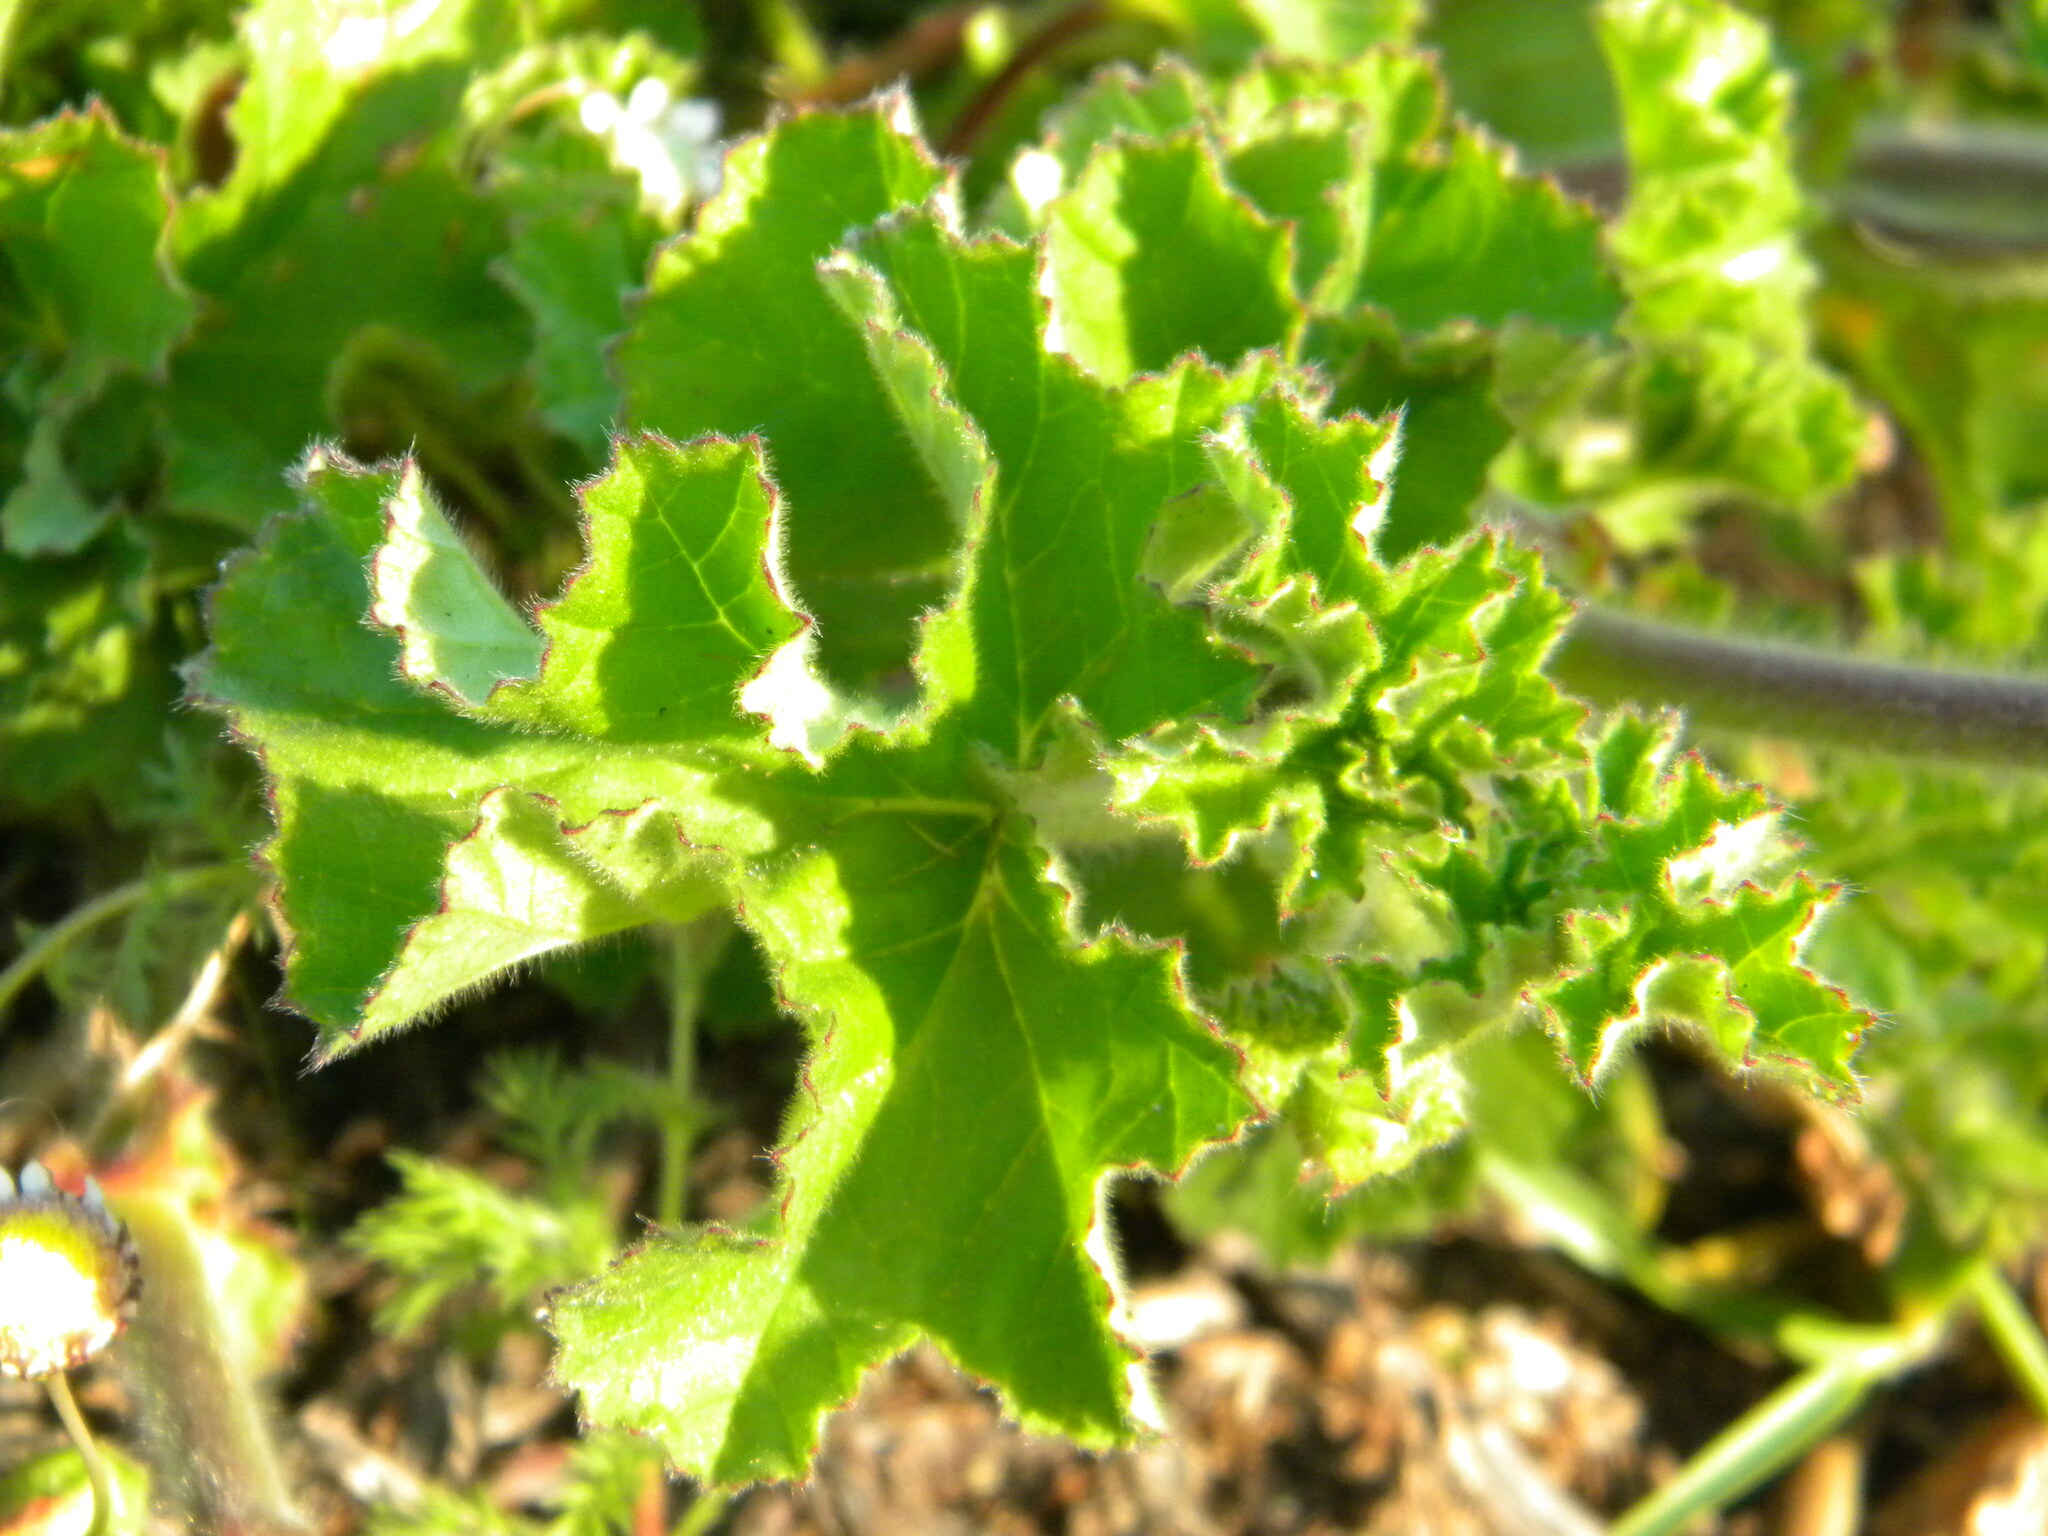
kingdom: Plantae
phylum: Tracheophyta
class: Magnoliopsida
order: Geraniales
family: Geraniaceae
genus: Pelargonium
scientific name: Pelargonium capitatum
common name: Rose scented geranium
